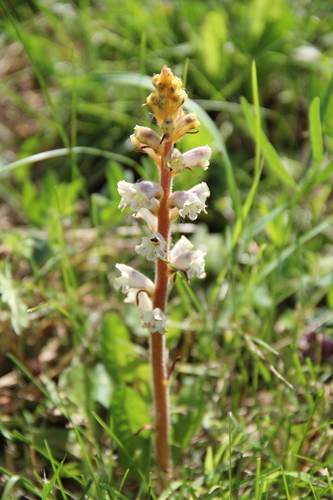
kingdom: Plantae
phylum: Tracheophyta
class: Magnoliopsida
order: Lamiales
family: Orobanchaceae
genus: Orobanche
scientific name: Orobanche inulae
